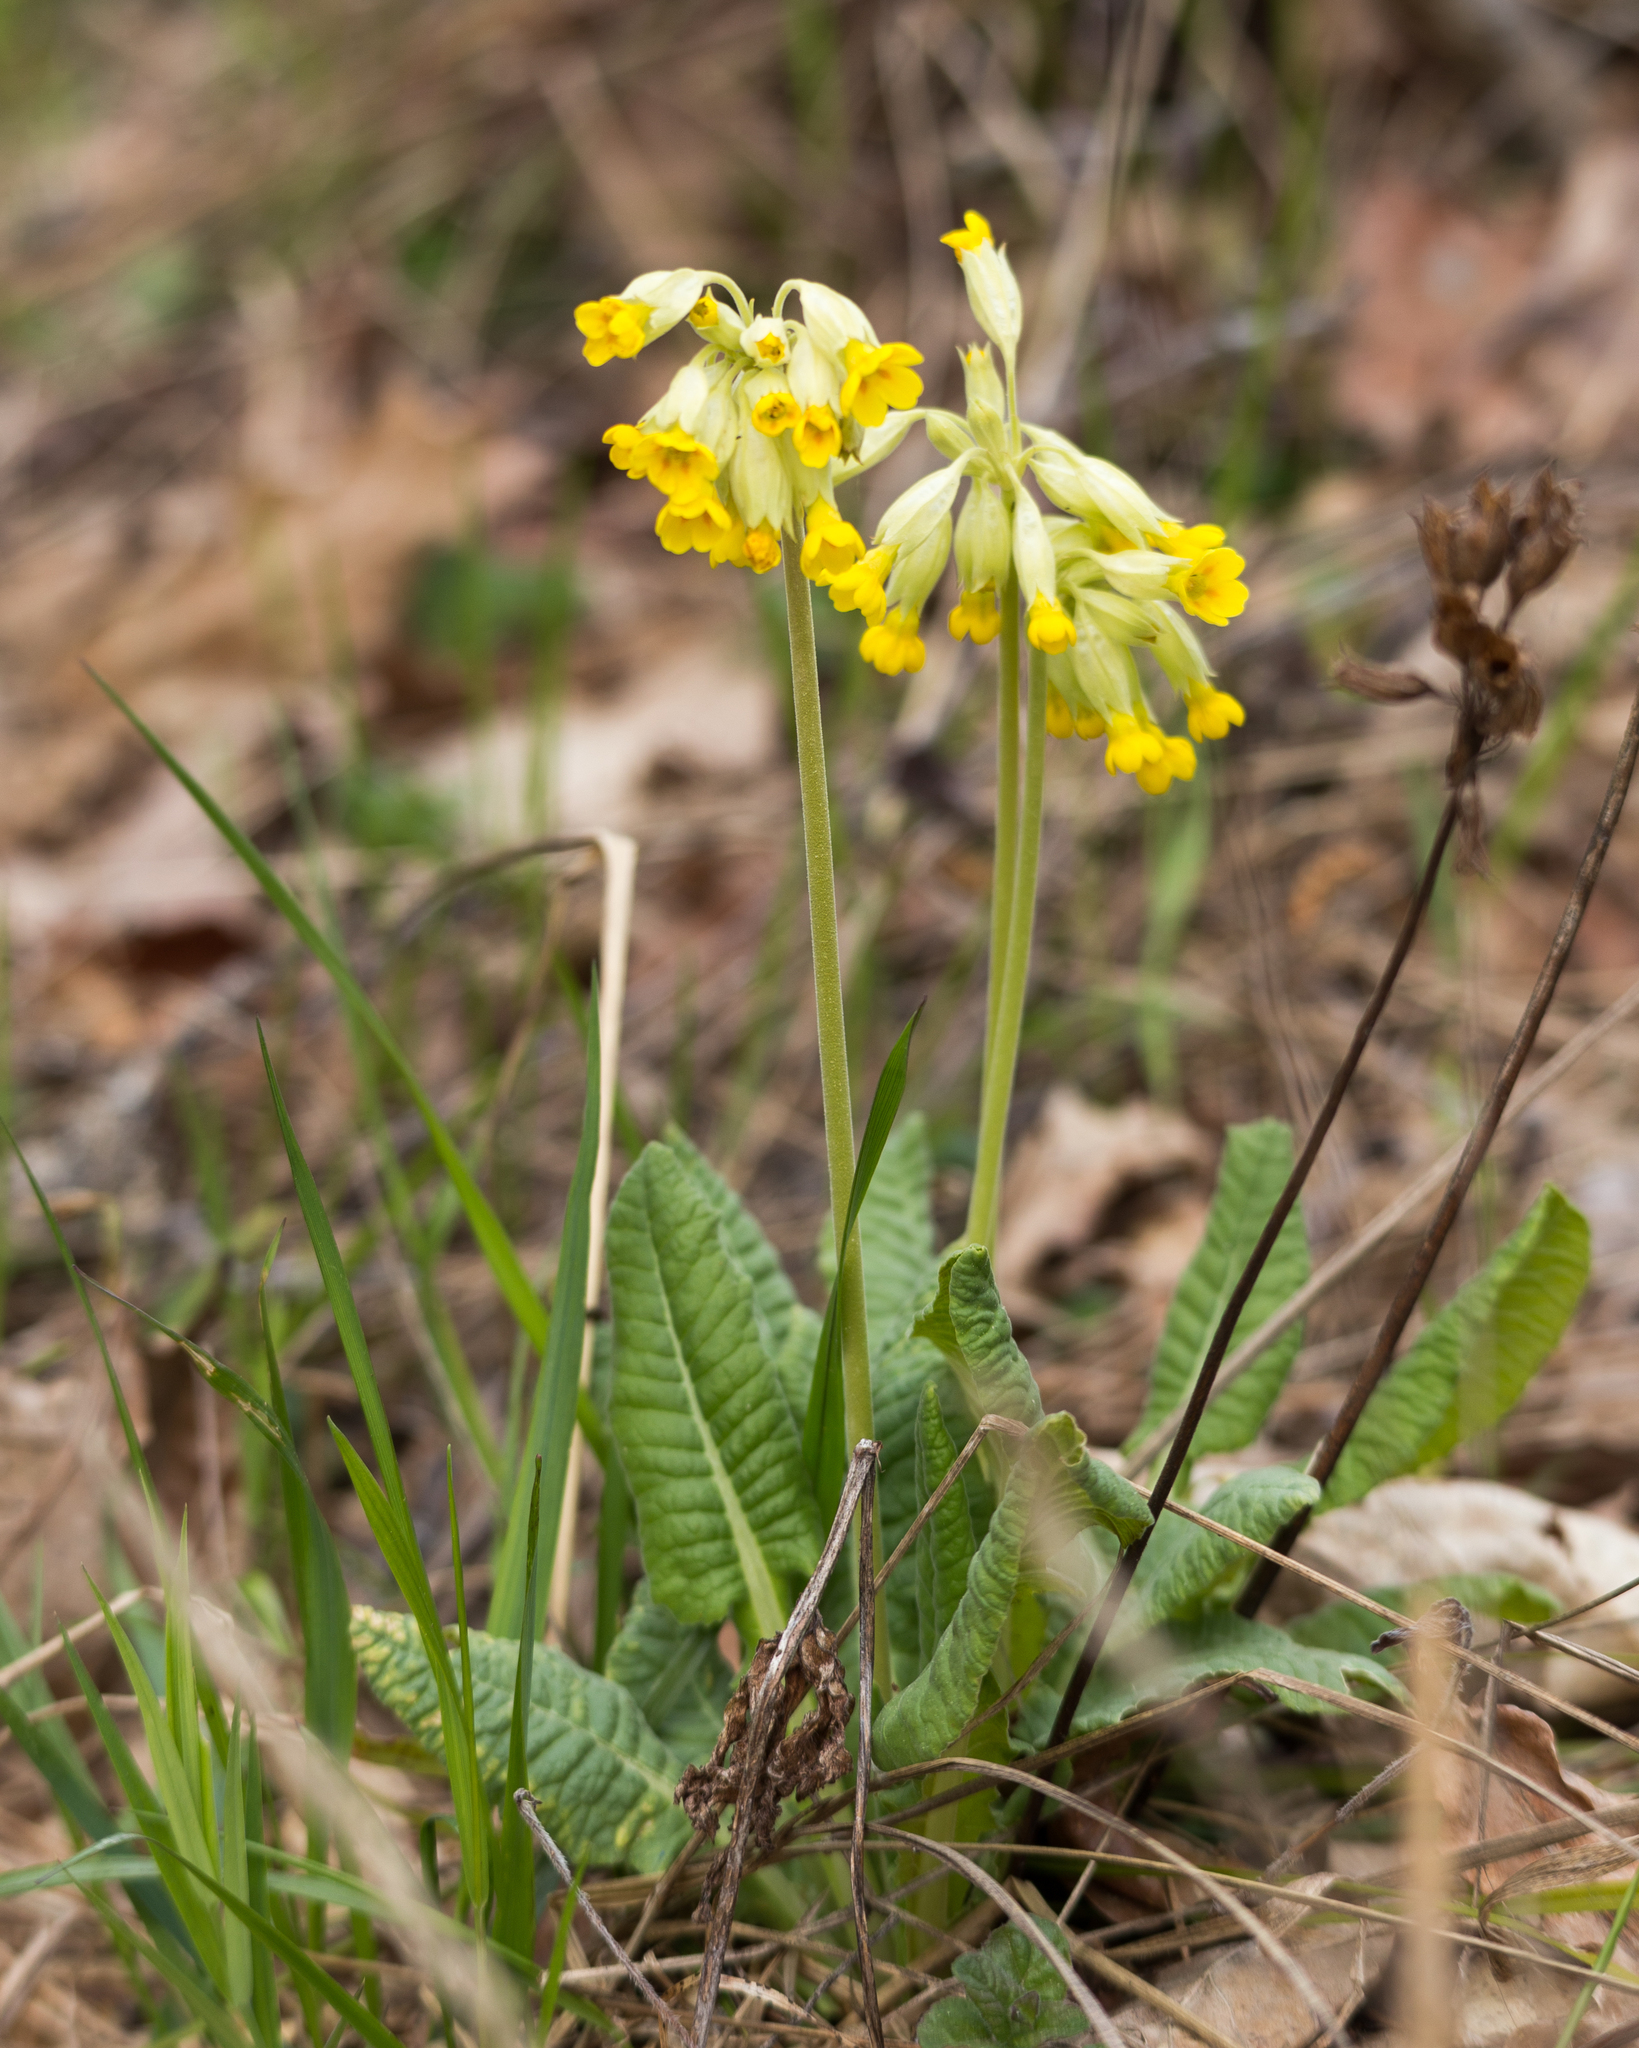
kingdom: Plantae
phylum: Tracheophyta
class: Magnoliopsida
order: Ericales
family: Primulaceae
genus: Primula
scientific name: Primula veris
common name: Cowslip
